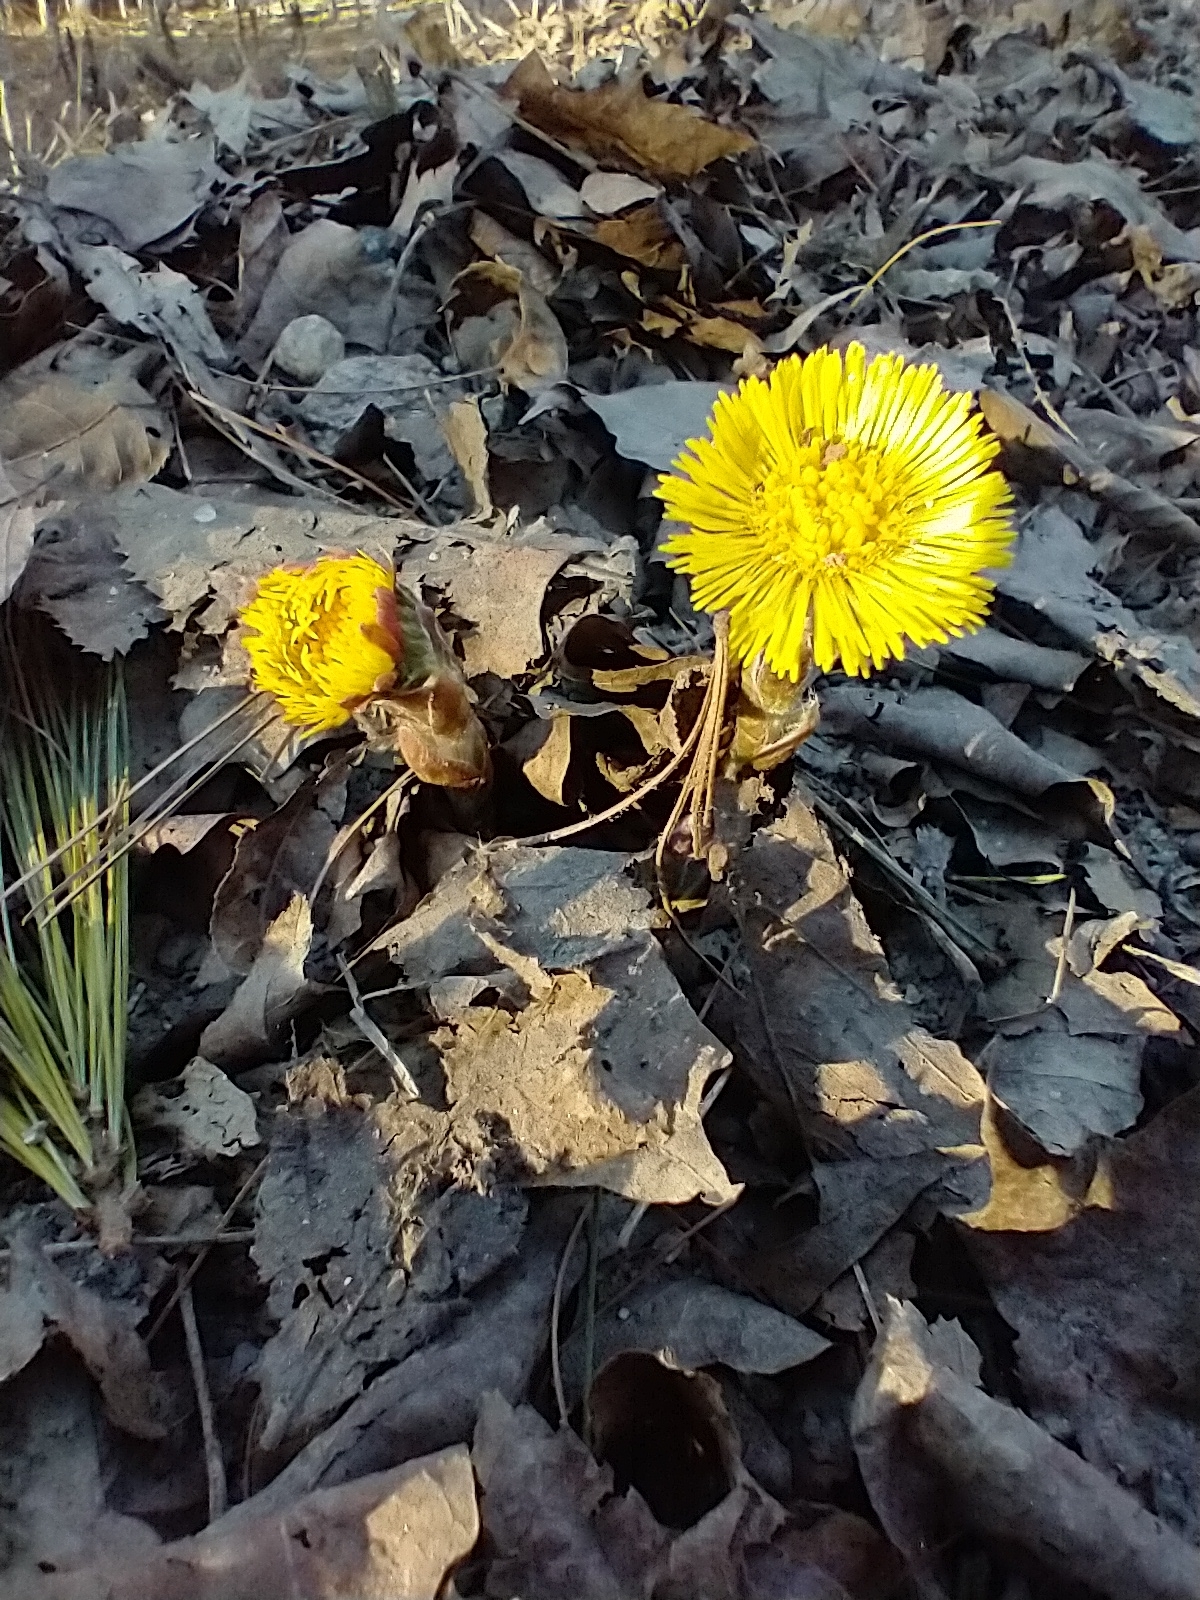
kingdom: Plantae
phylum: Tracheophyta
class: Magnoliopsida
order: Asterales
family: Asteraceae
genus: Tussilago
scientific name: Tussilago farfara
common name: Coltsfoot
